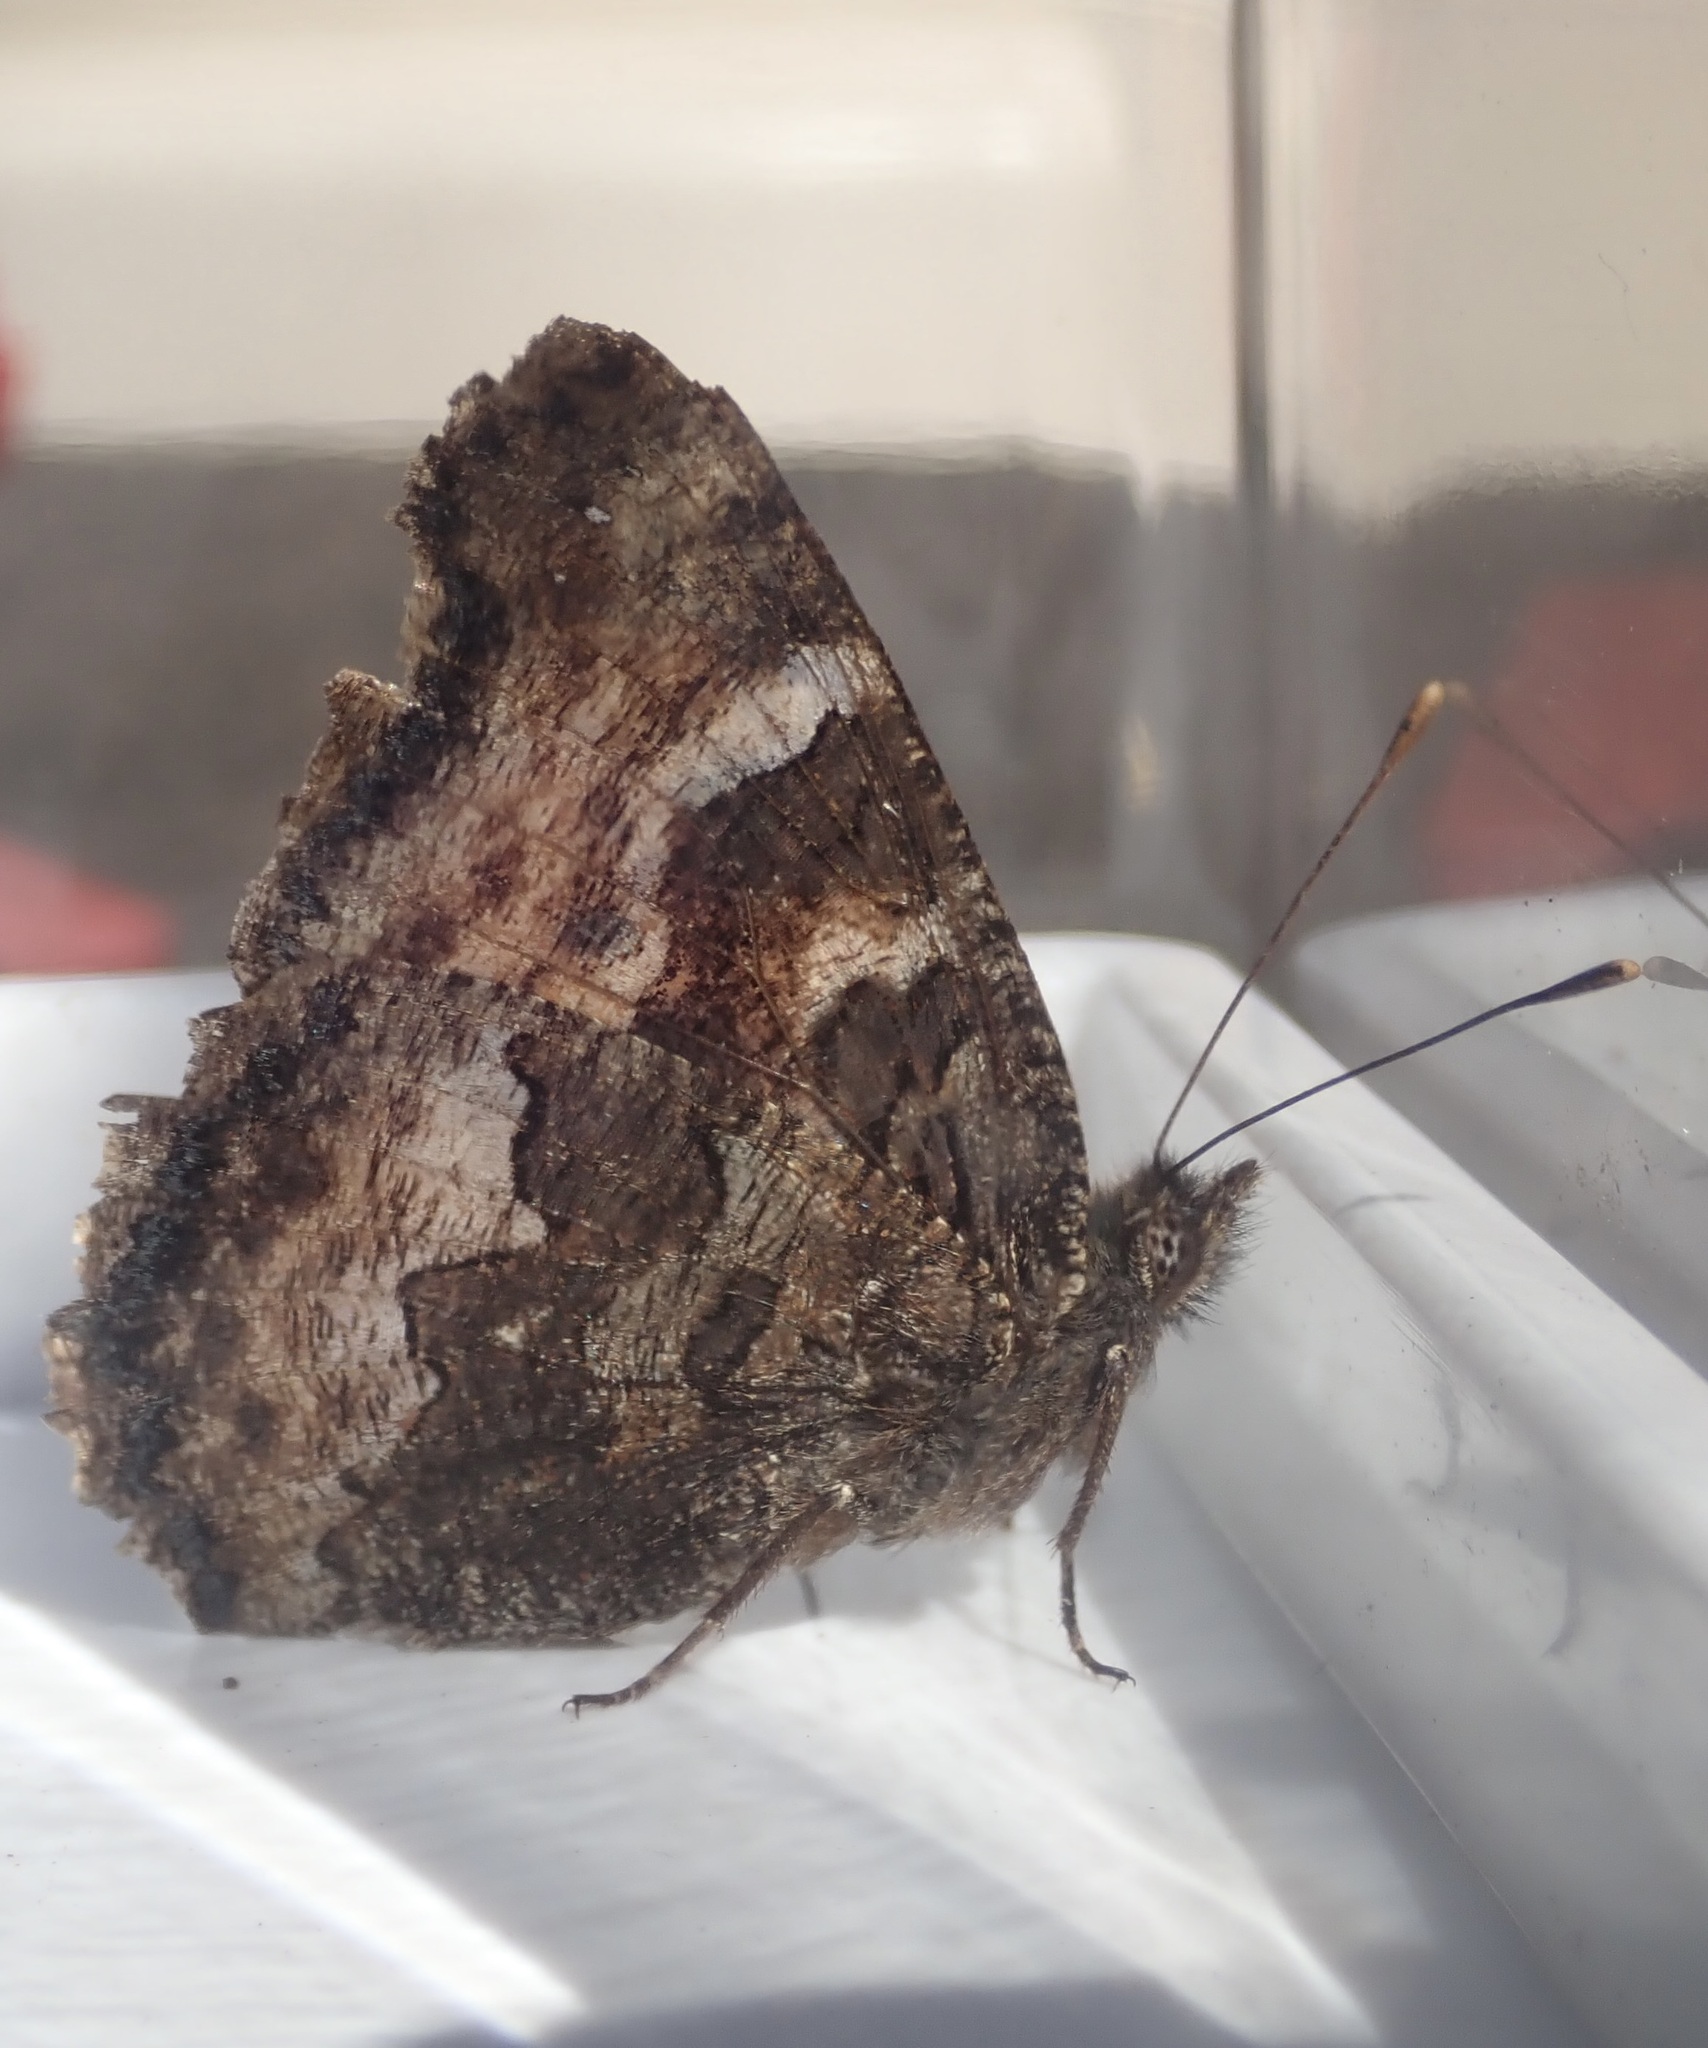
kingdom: Animalia
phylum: Arthropoda
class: Insecta
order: Lepidoptera
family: Nymphalidae
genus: Nymphalis
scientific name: Nymphalis californica
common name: California tortoiseshell
